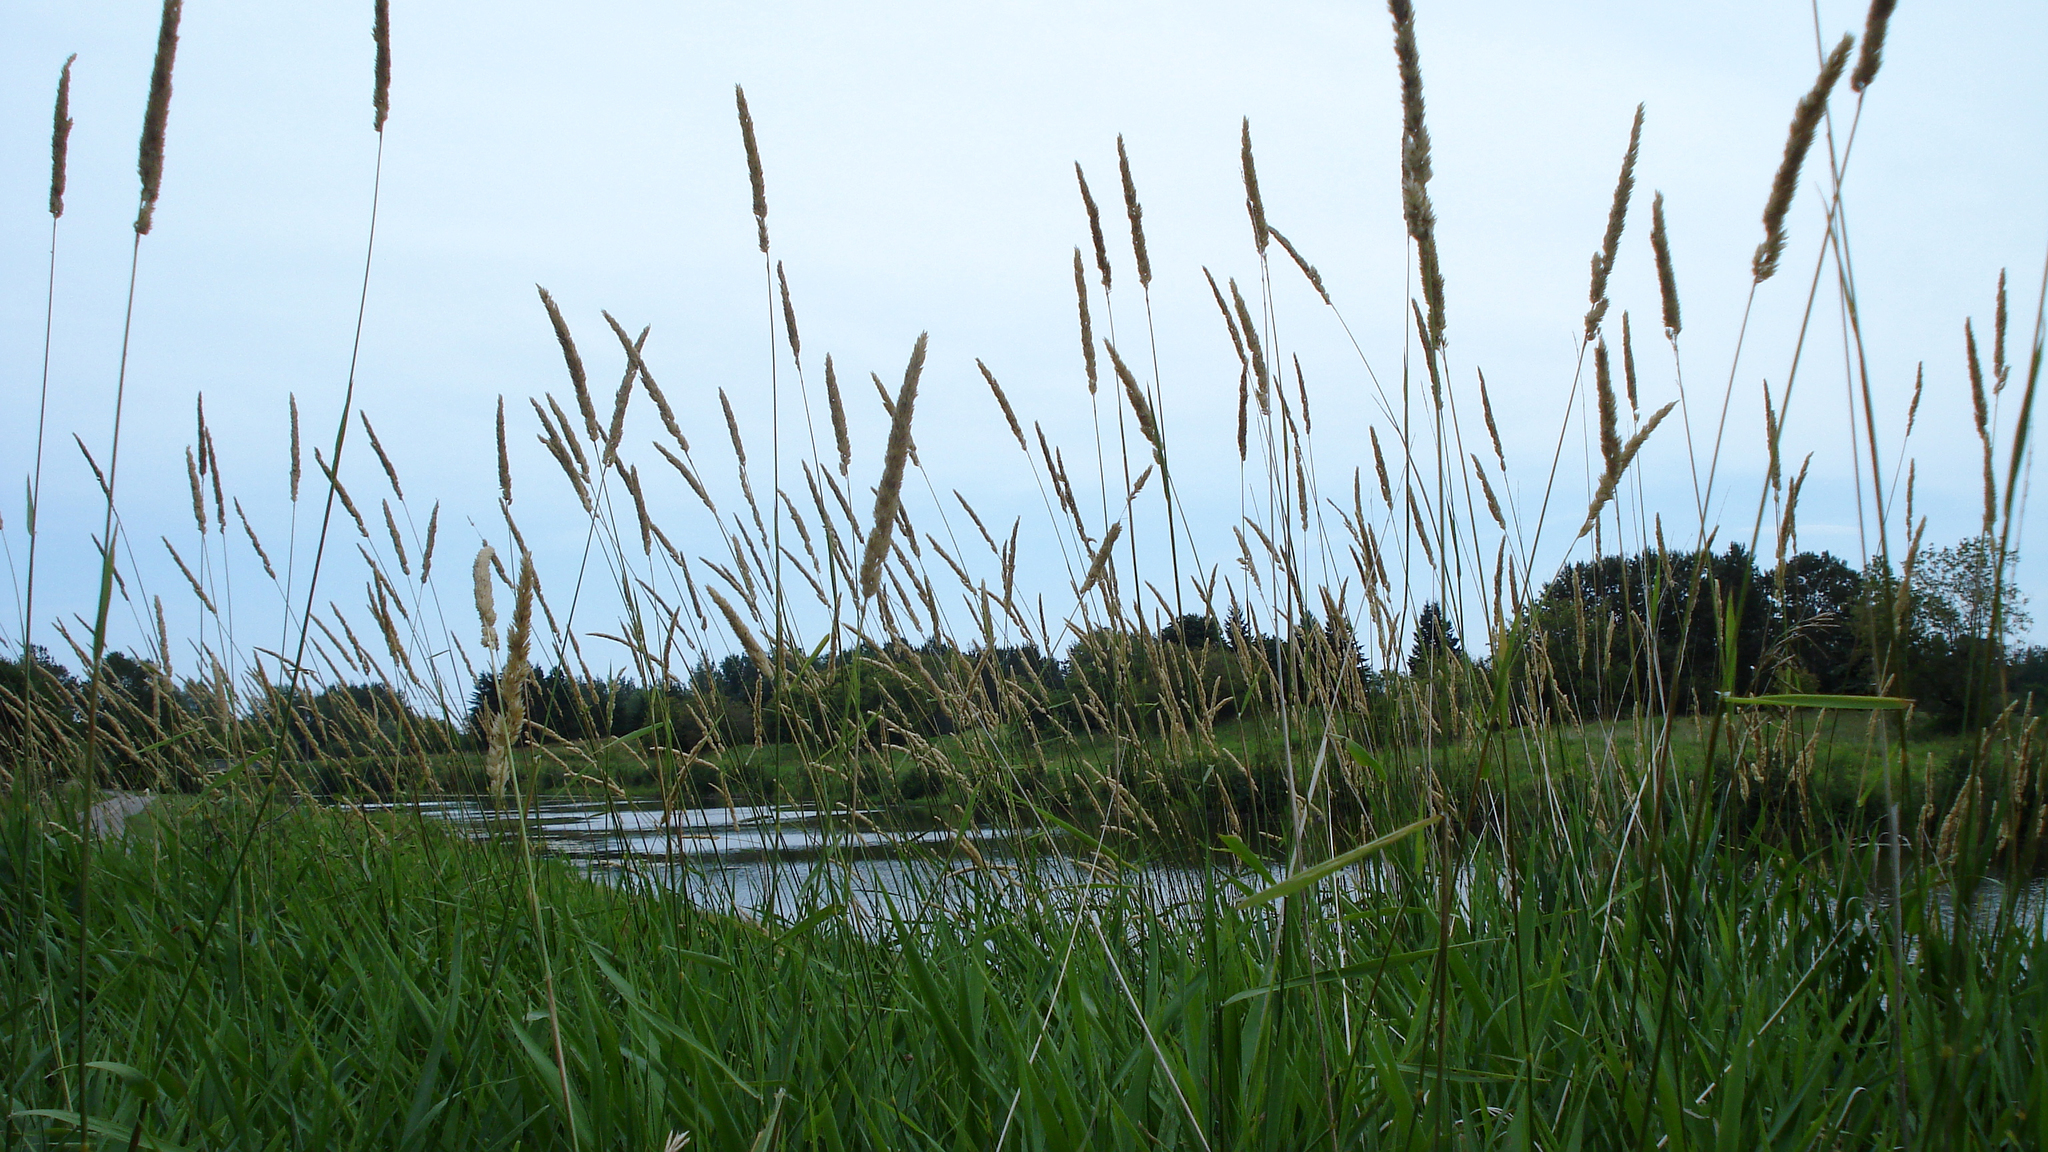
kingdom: Plantae
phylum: Tracheophyta
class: Liliopsida
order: Poales
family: Poaceae
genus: Phalaris
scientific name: Phalaris arundinacea
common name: Reed canary-grass
